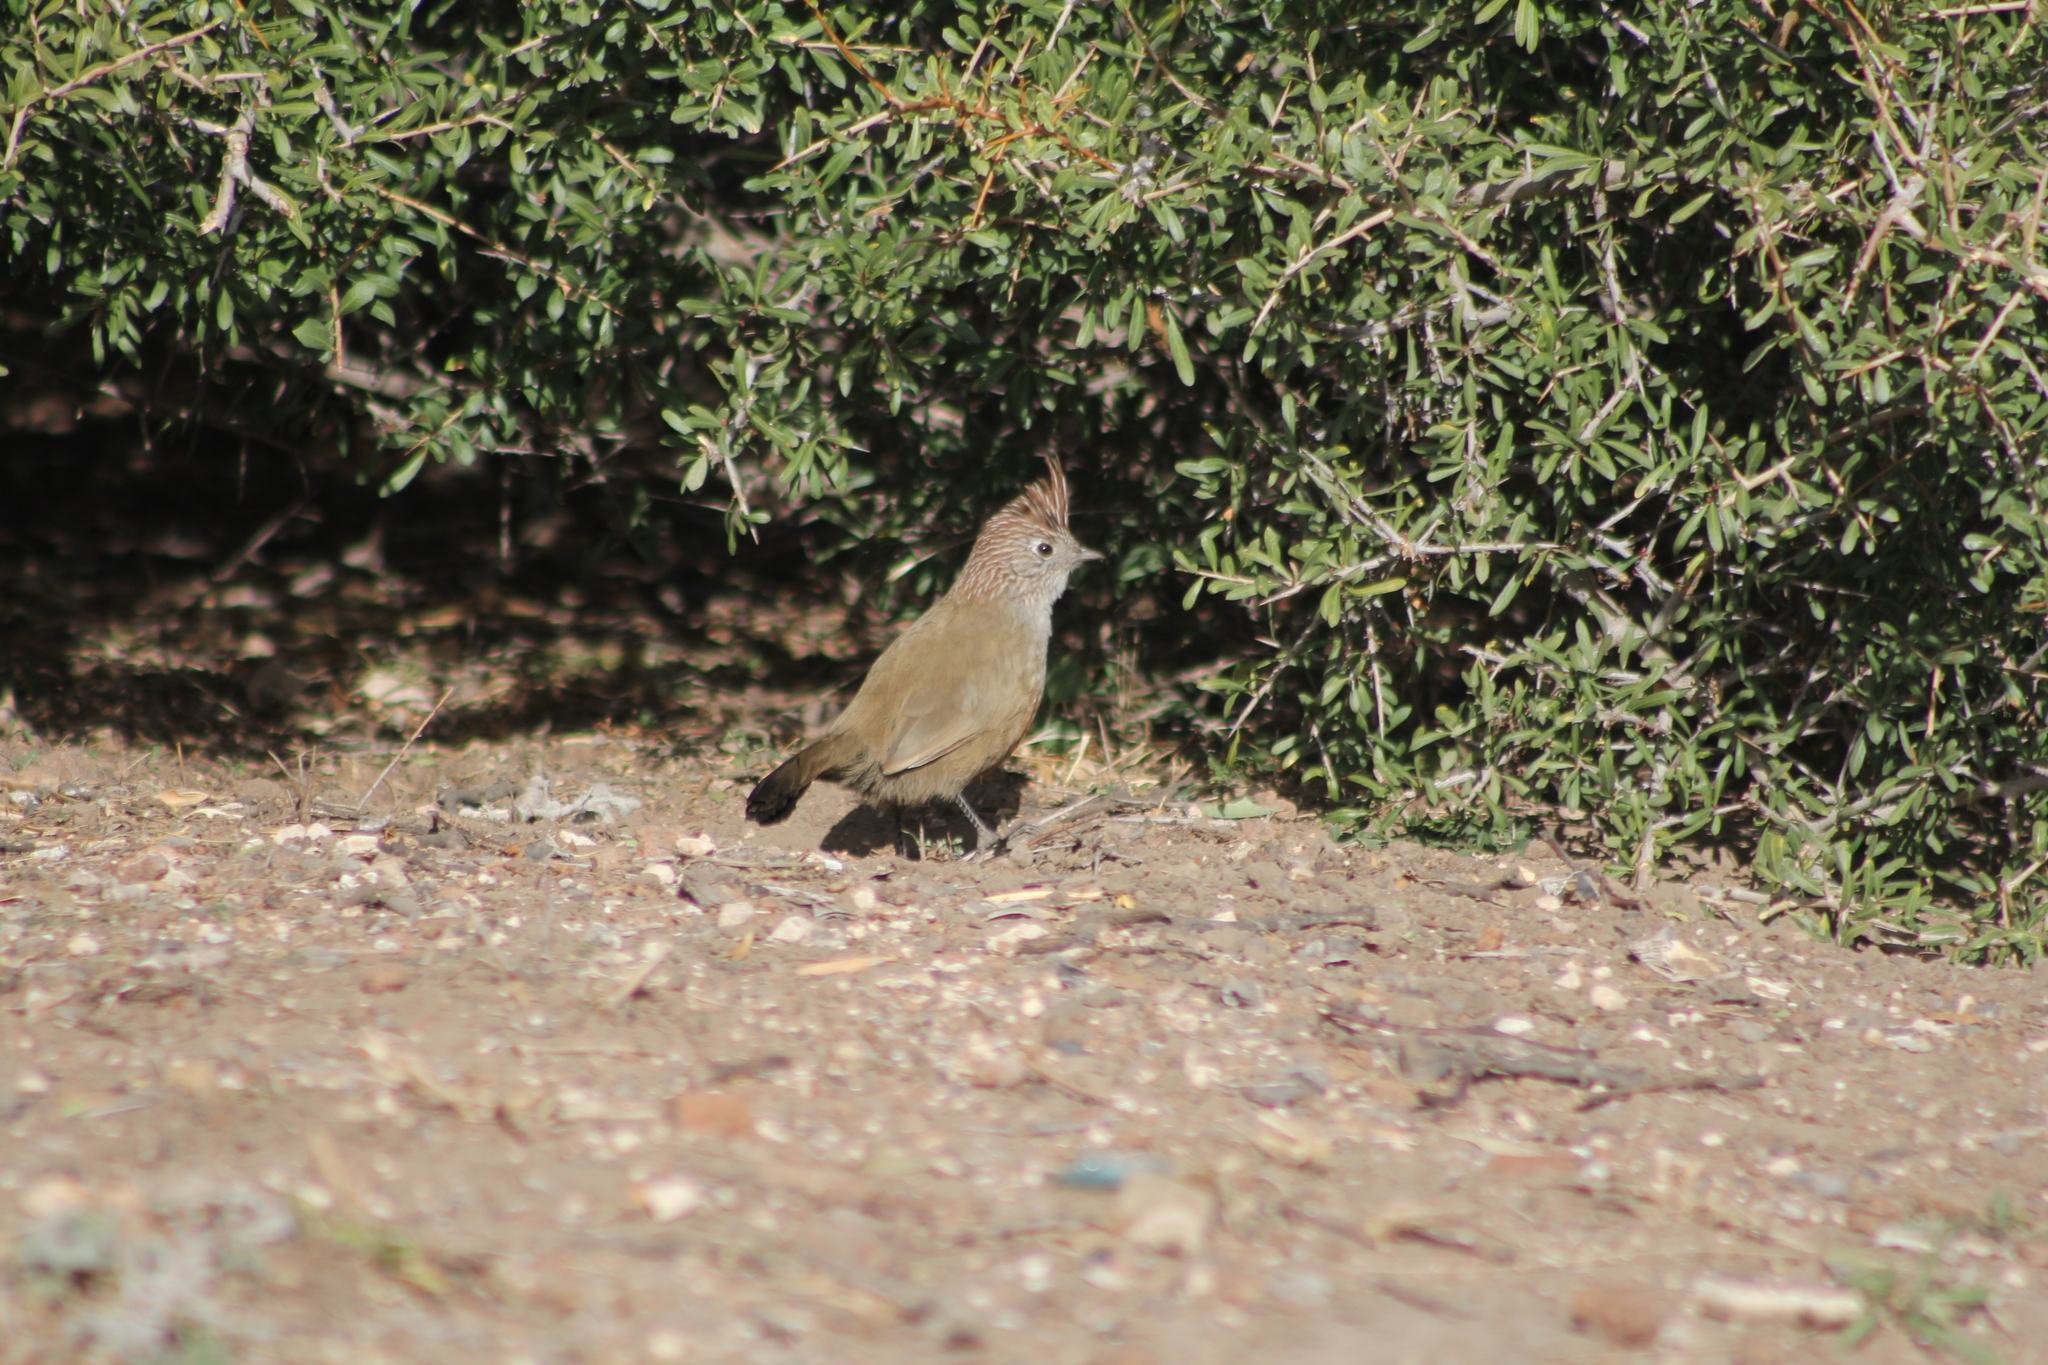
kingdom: Animalia
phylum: Chordata
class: Aves
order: Passeriformes
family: Rhinocryptidae
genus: Rhinocrypta
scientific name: Rhinocrypta lanceolata
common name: Crested gallito
